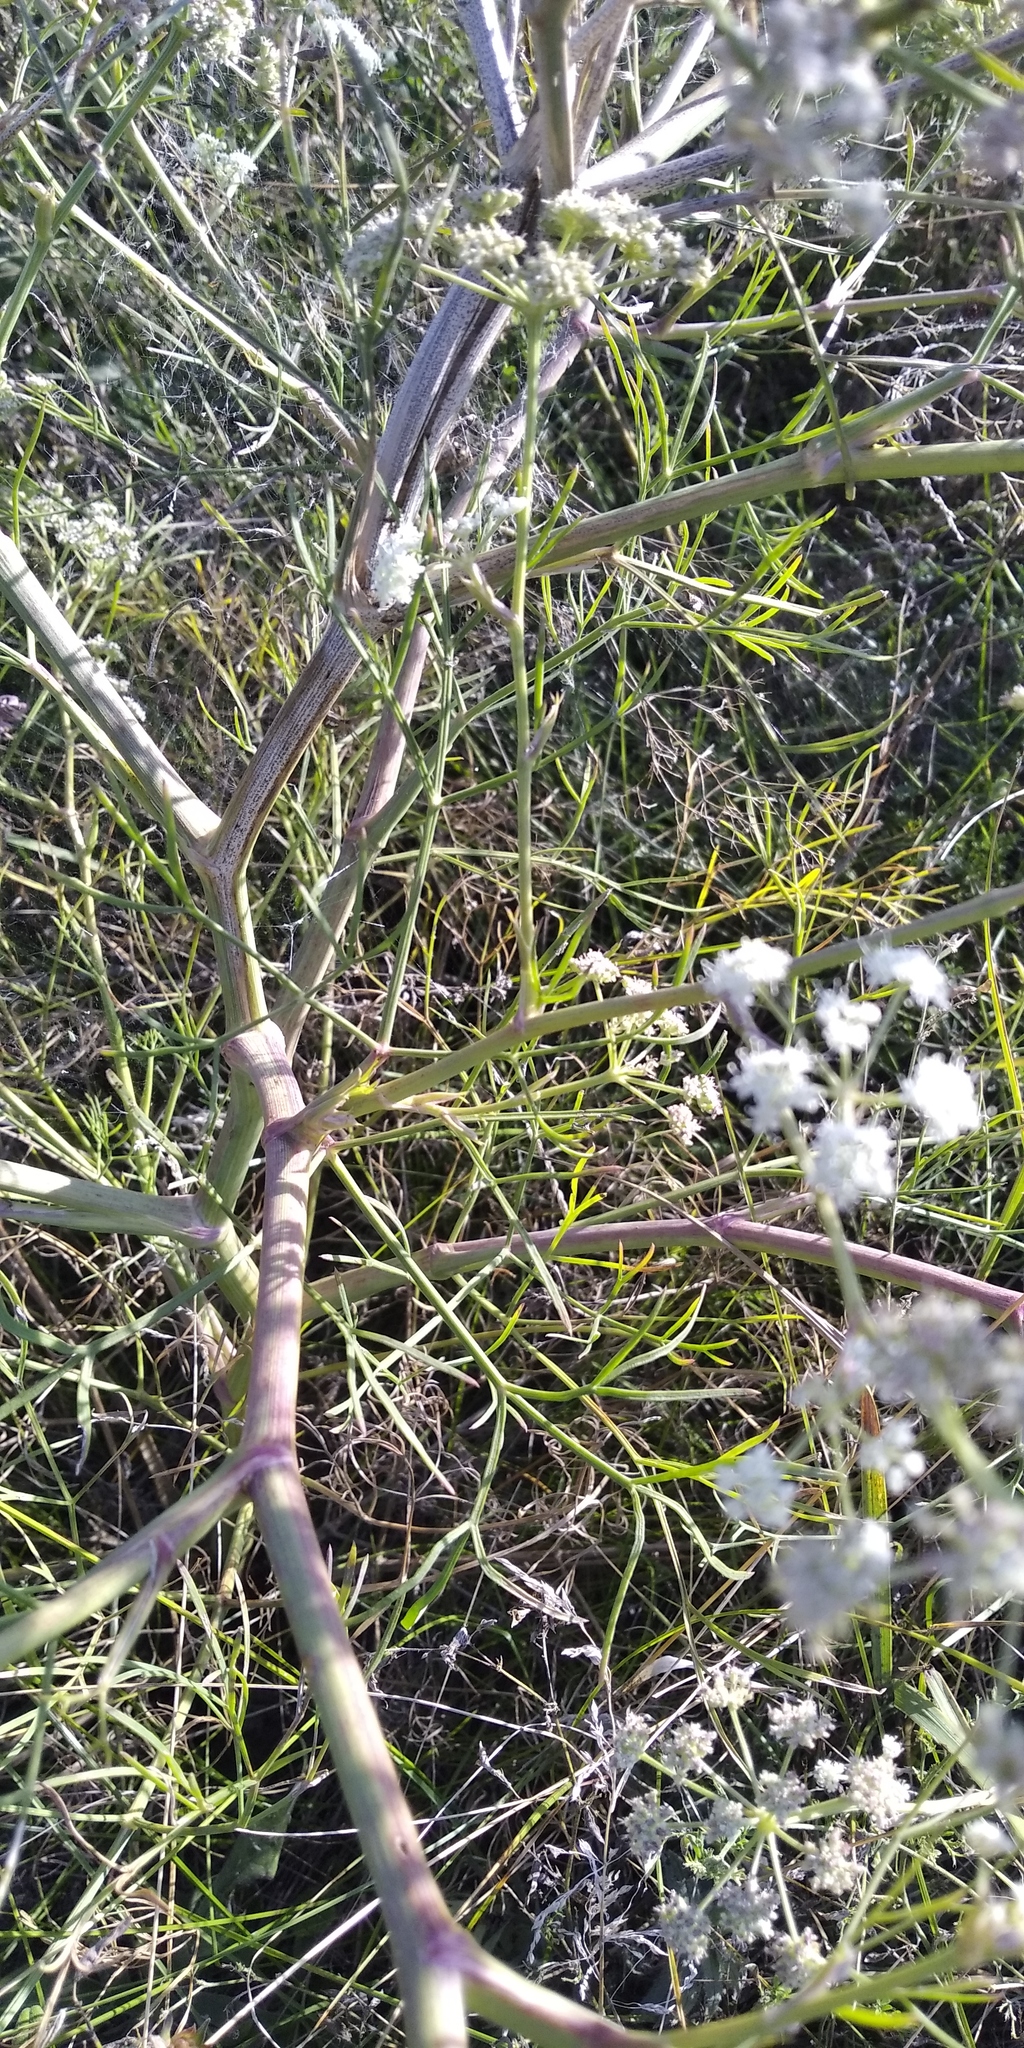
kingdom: Plantae
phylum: Tracheophyta
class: Magnoliopsida
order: Apiales
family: Apiaceae
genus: Seseli
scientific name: Seseli campestre
